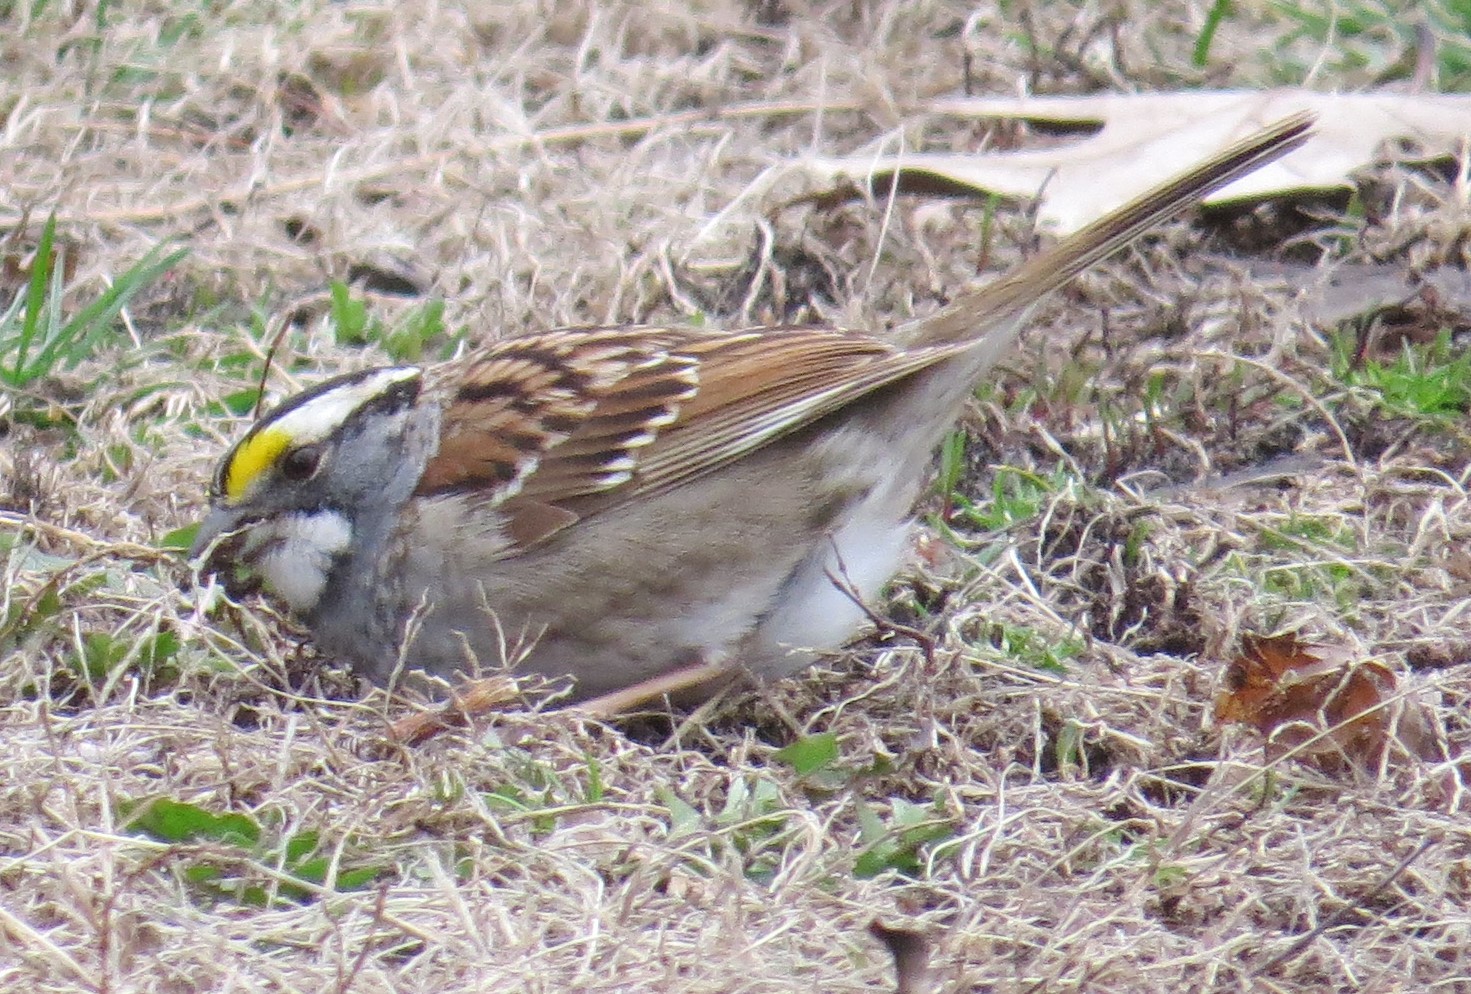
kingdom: Animalia
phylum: Chordata
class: Aves
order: Passeriformes
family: Passerellidae
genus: Zonotrichia
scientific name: Zonotrichia albicollis
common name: White-throated sparrow
